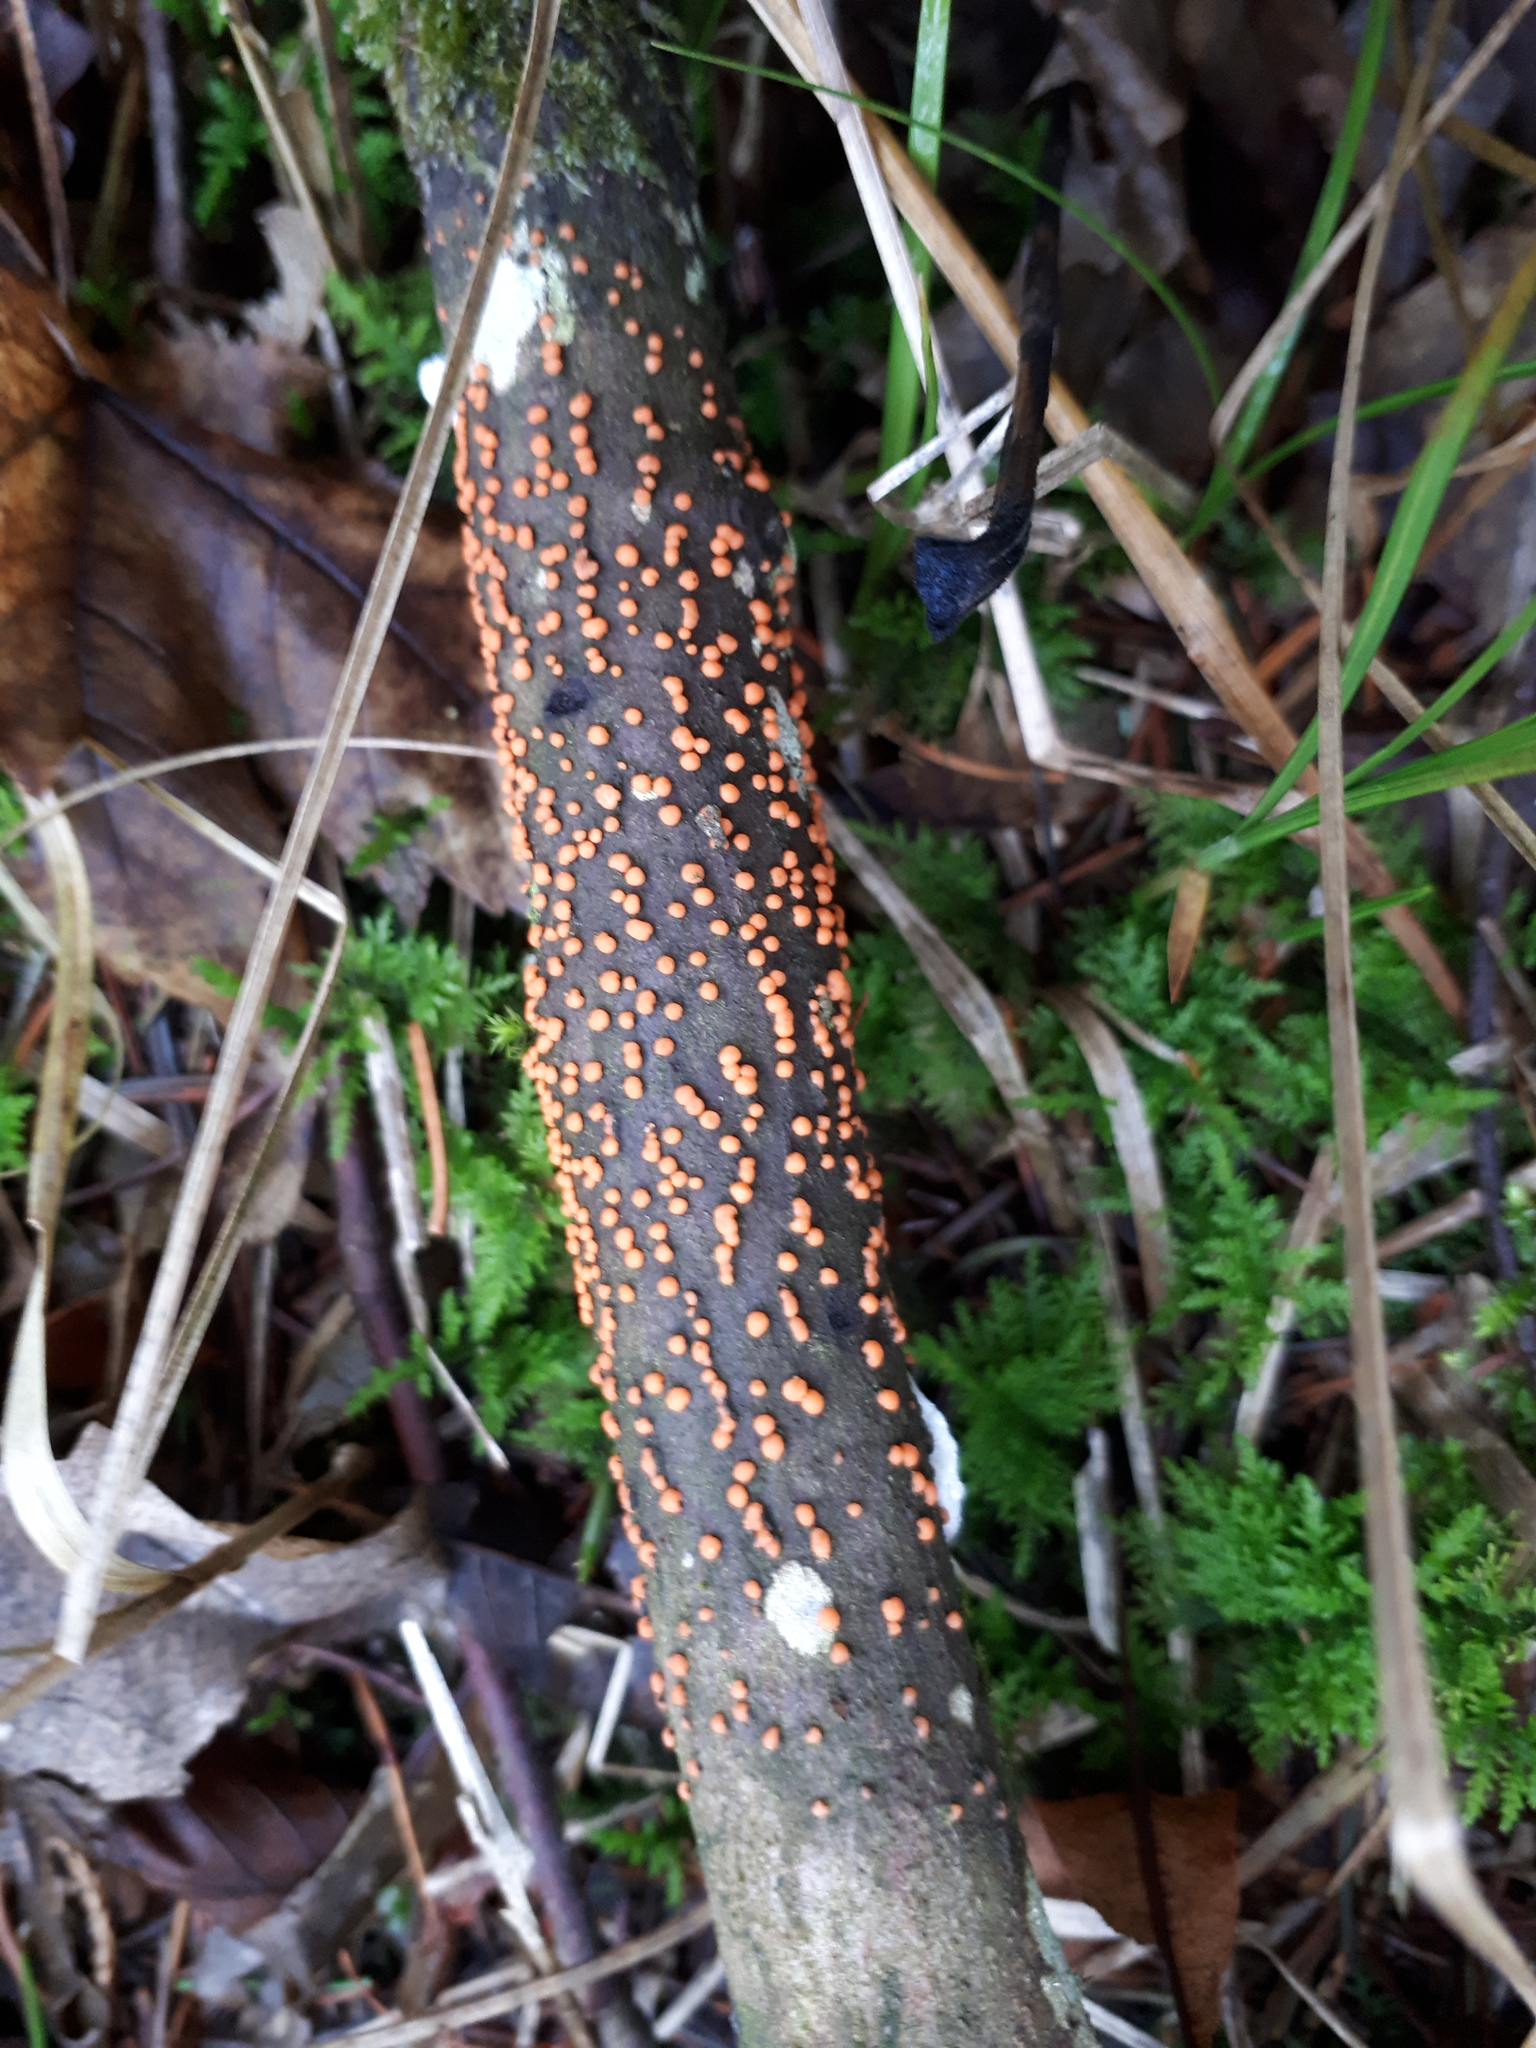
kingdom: Fungi
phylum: Ascomycota
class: Sordariomycetes
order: Hypocreales
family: Nectriaceae
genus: Nectria
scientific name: Nectria cinnabarina
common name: Coral spot
